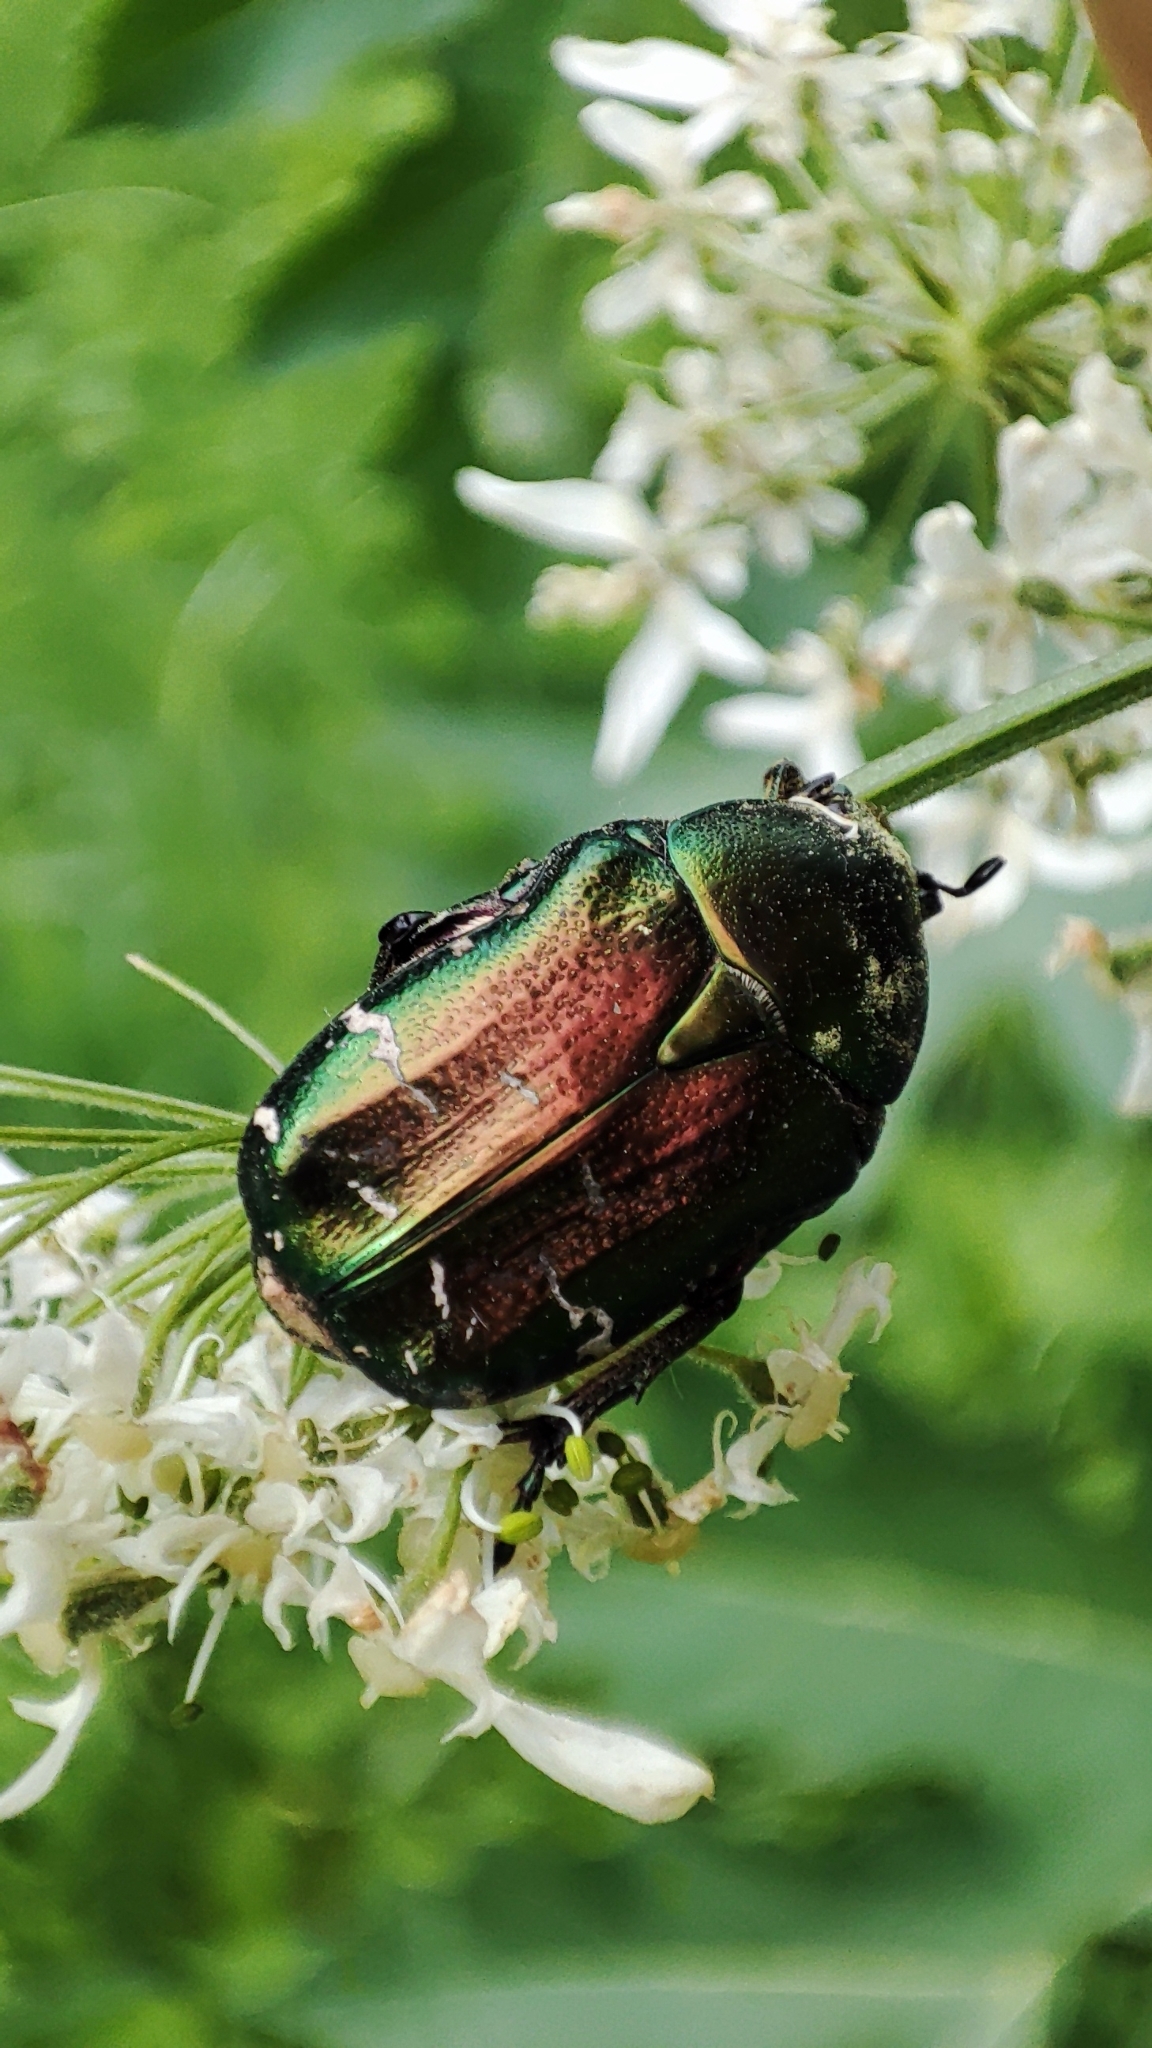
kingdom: Animalia
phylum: Arthropoda
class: Insecta
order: Coleoptera
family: Scarabaeidae
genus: Cetonia
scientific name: Cetonia aurata
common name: Rose chafer
